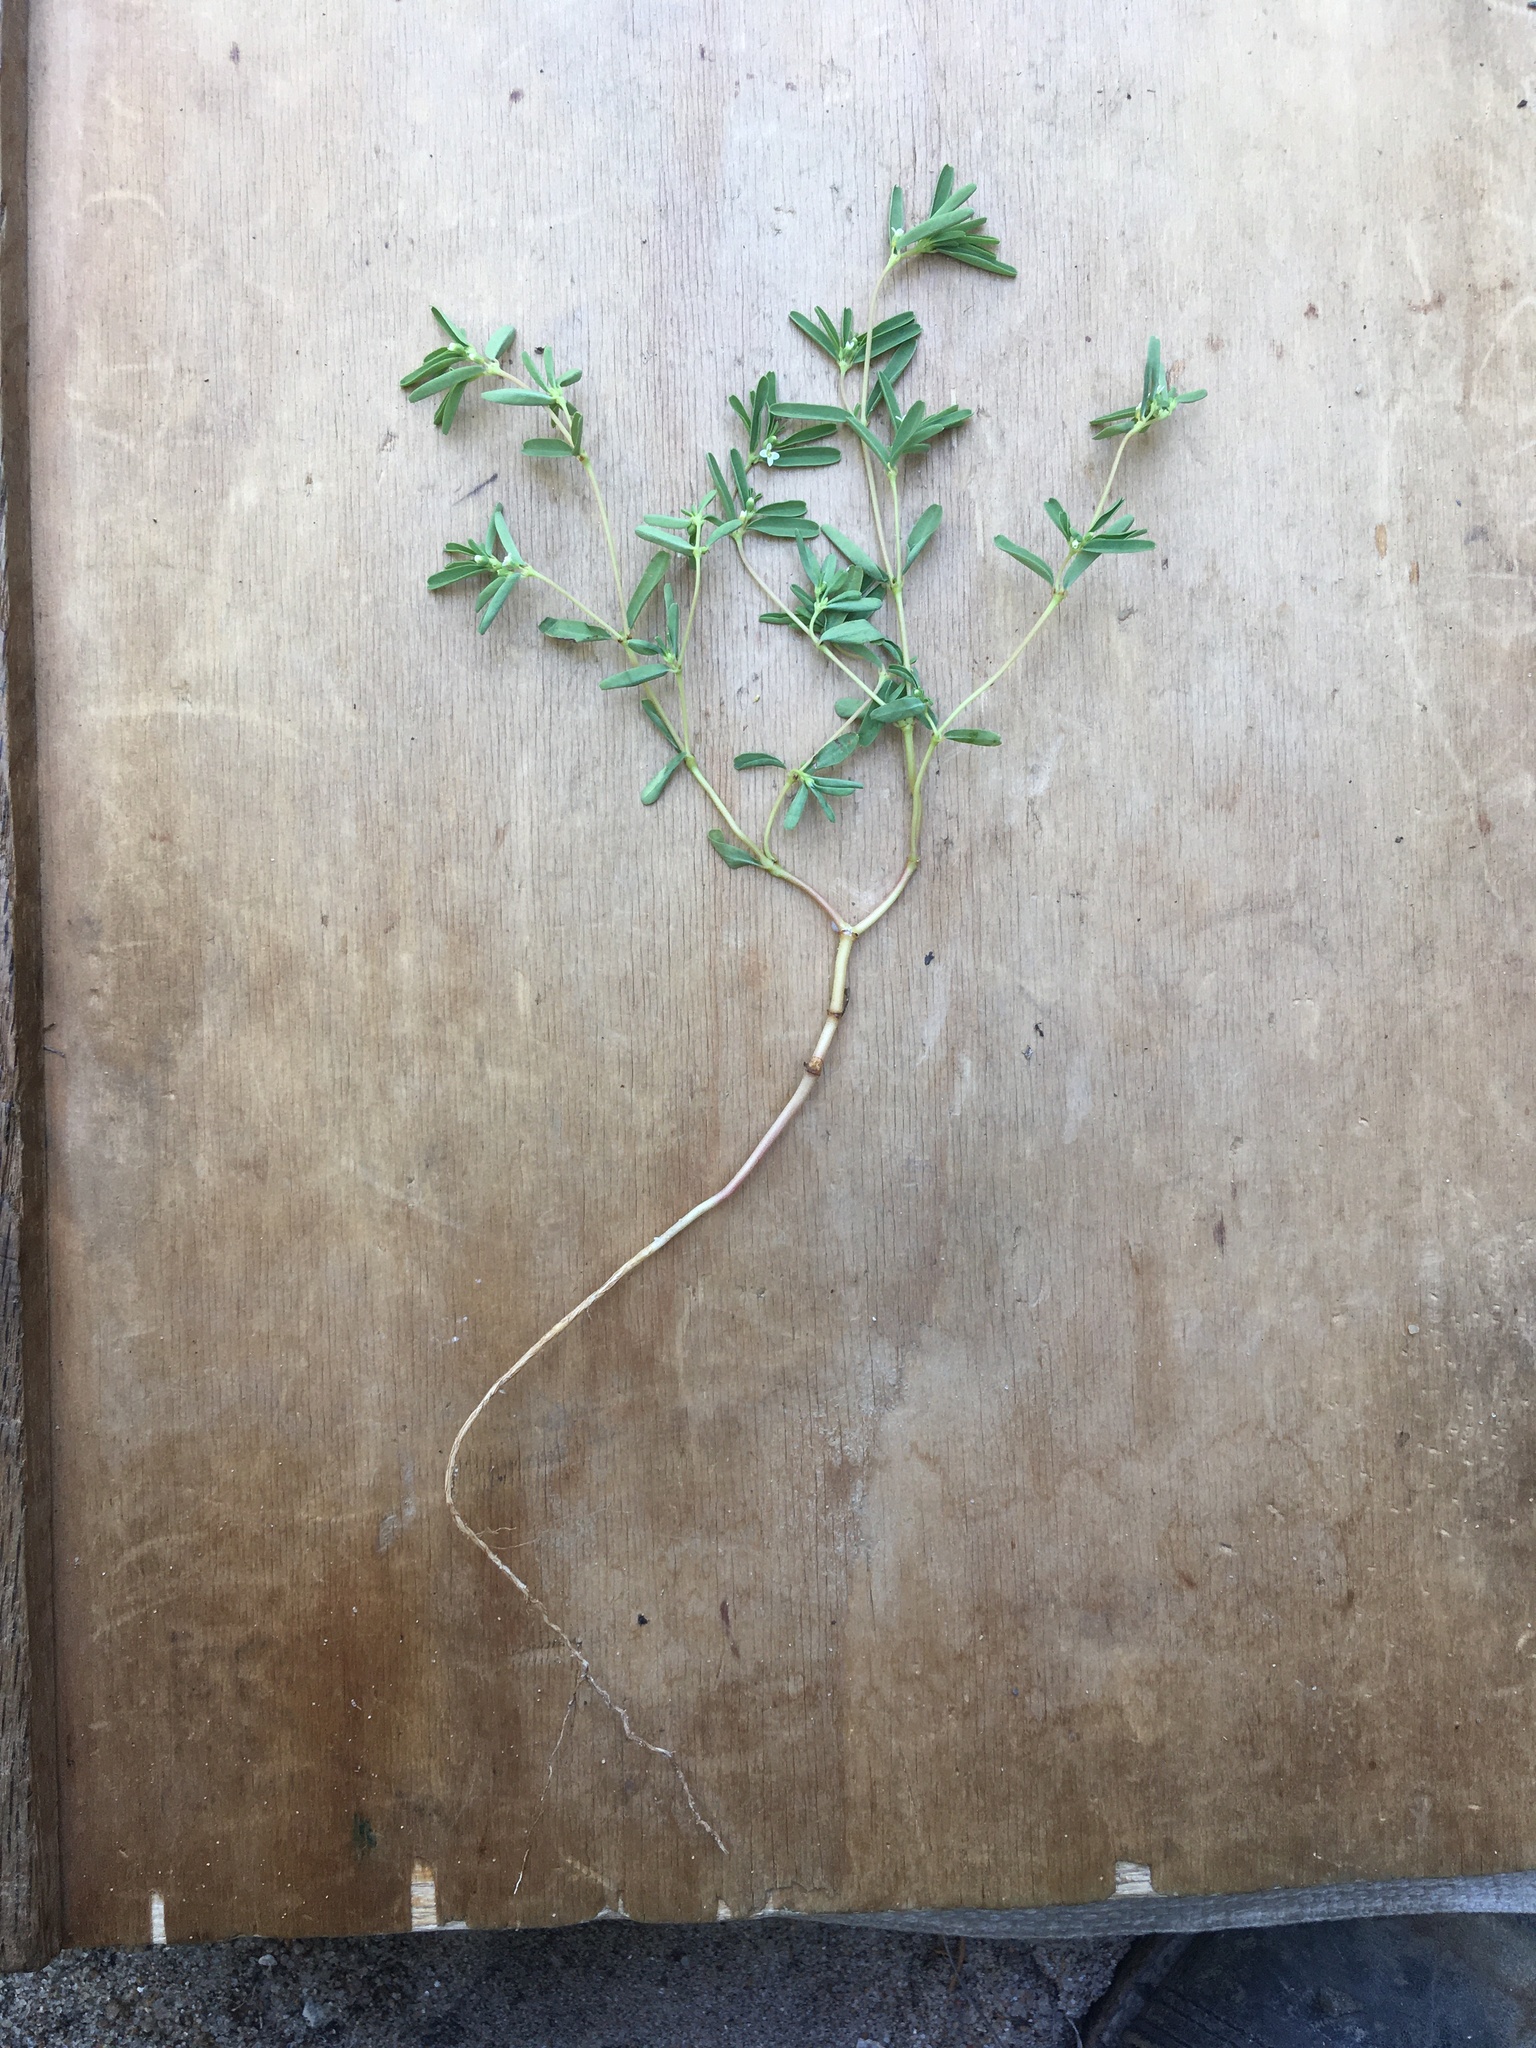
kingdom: Plantae
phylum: Tracheophyta
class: Magnoliopsida
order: Malpighiales
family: Euphorbiaceae
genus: Euphorbia
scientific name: Euphorbia missurica
